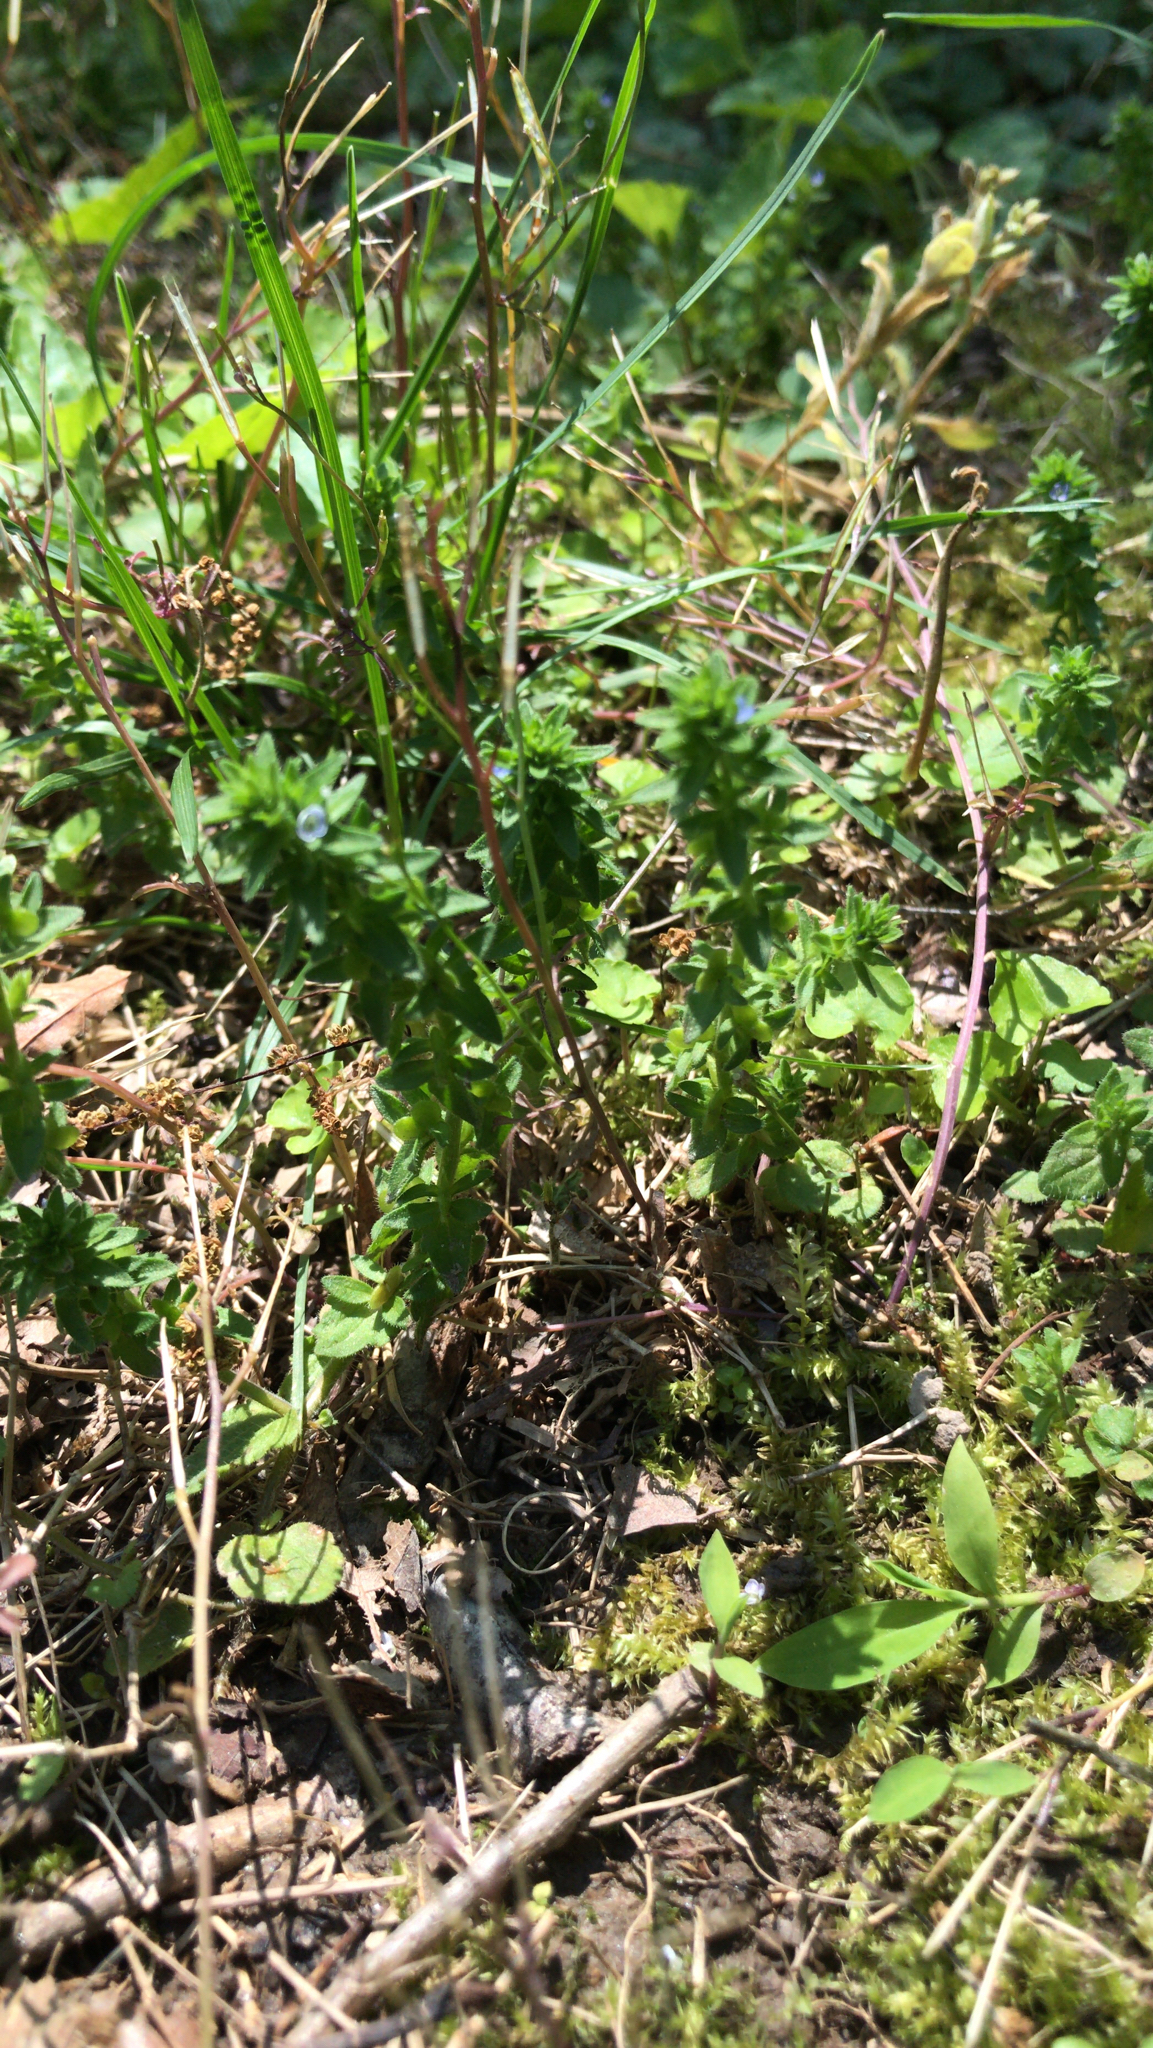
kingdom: Plantae
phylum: Tracheophyta
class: Magnoliopsida
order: Lamiales
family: Plantaginaceae
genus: Veronica
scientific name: Veronica arvensis
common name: Corn speedwell
